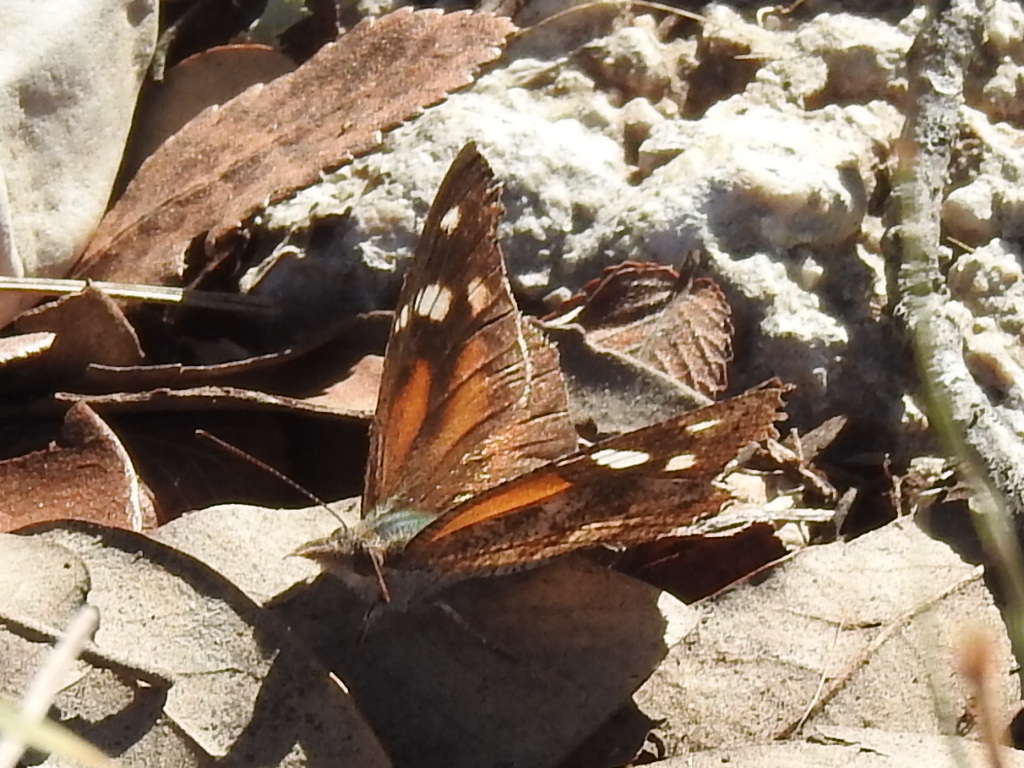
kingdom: Animalia
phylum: Arthropoda
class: Insecta
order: Lepidoptera
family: Nymphalidae
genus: Libytheana
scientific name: Libytheana carinenta
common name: American snout
